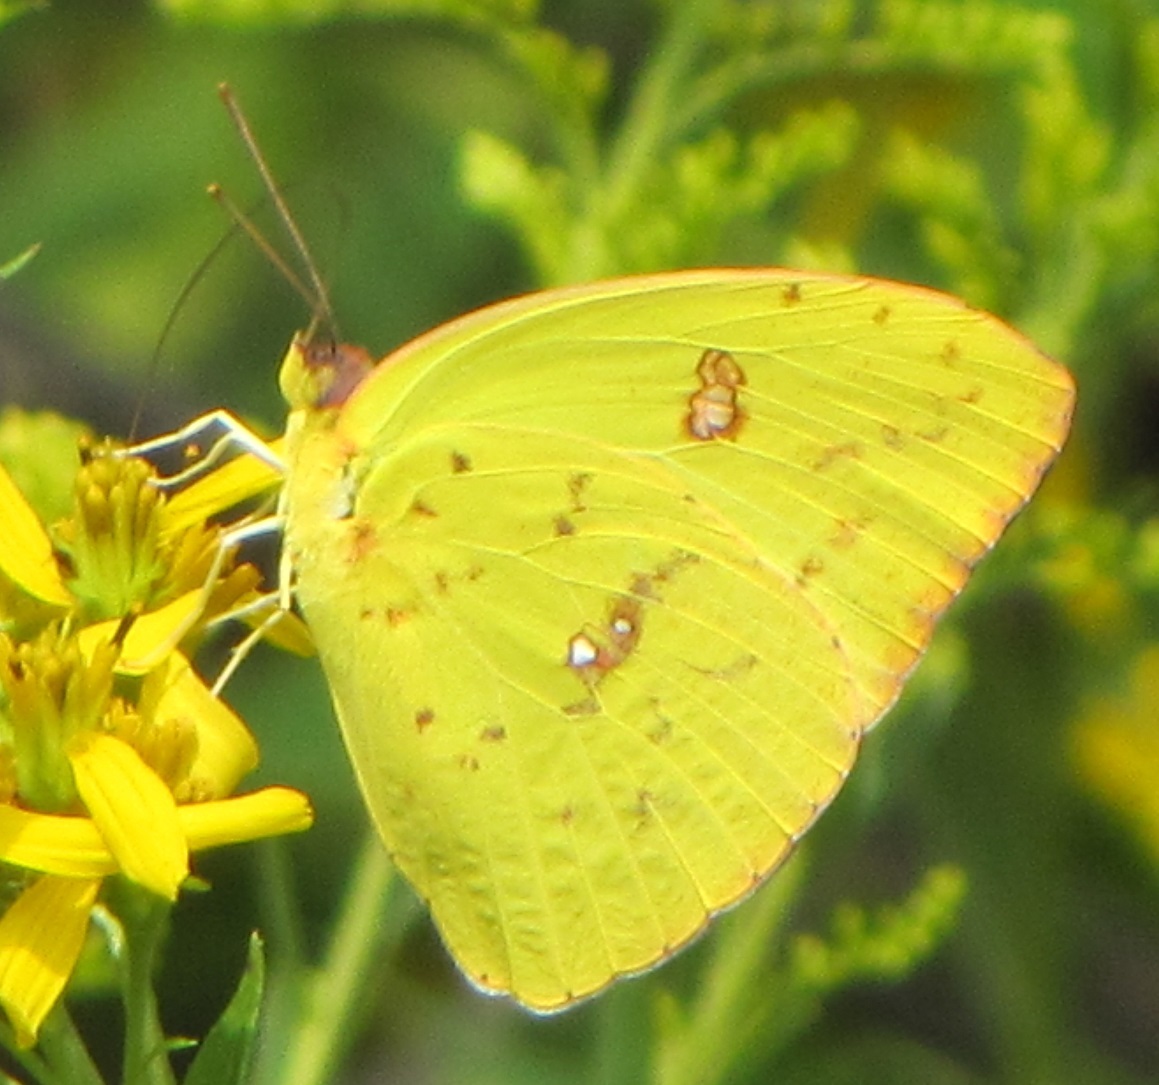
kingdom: Animalia
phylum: Arthropoda
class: Insecta
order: Lepidoptera
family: Pieridae
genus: Phoebis
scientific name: Phoebis sennae
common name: Cloudless sulphur
